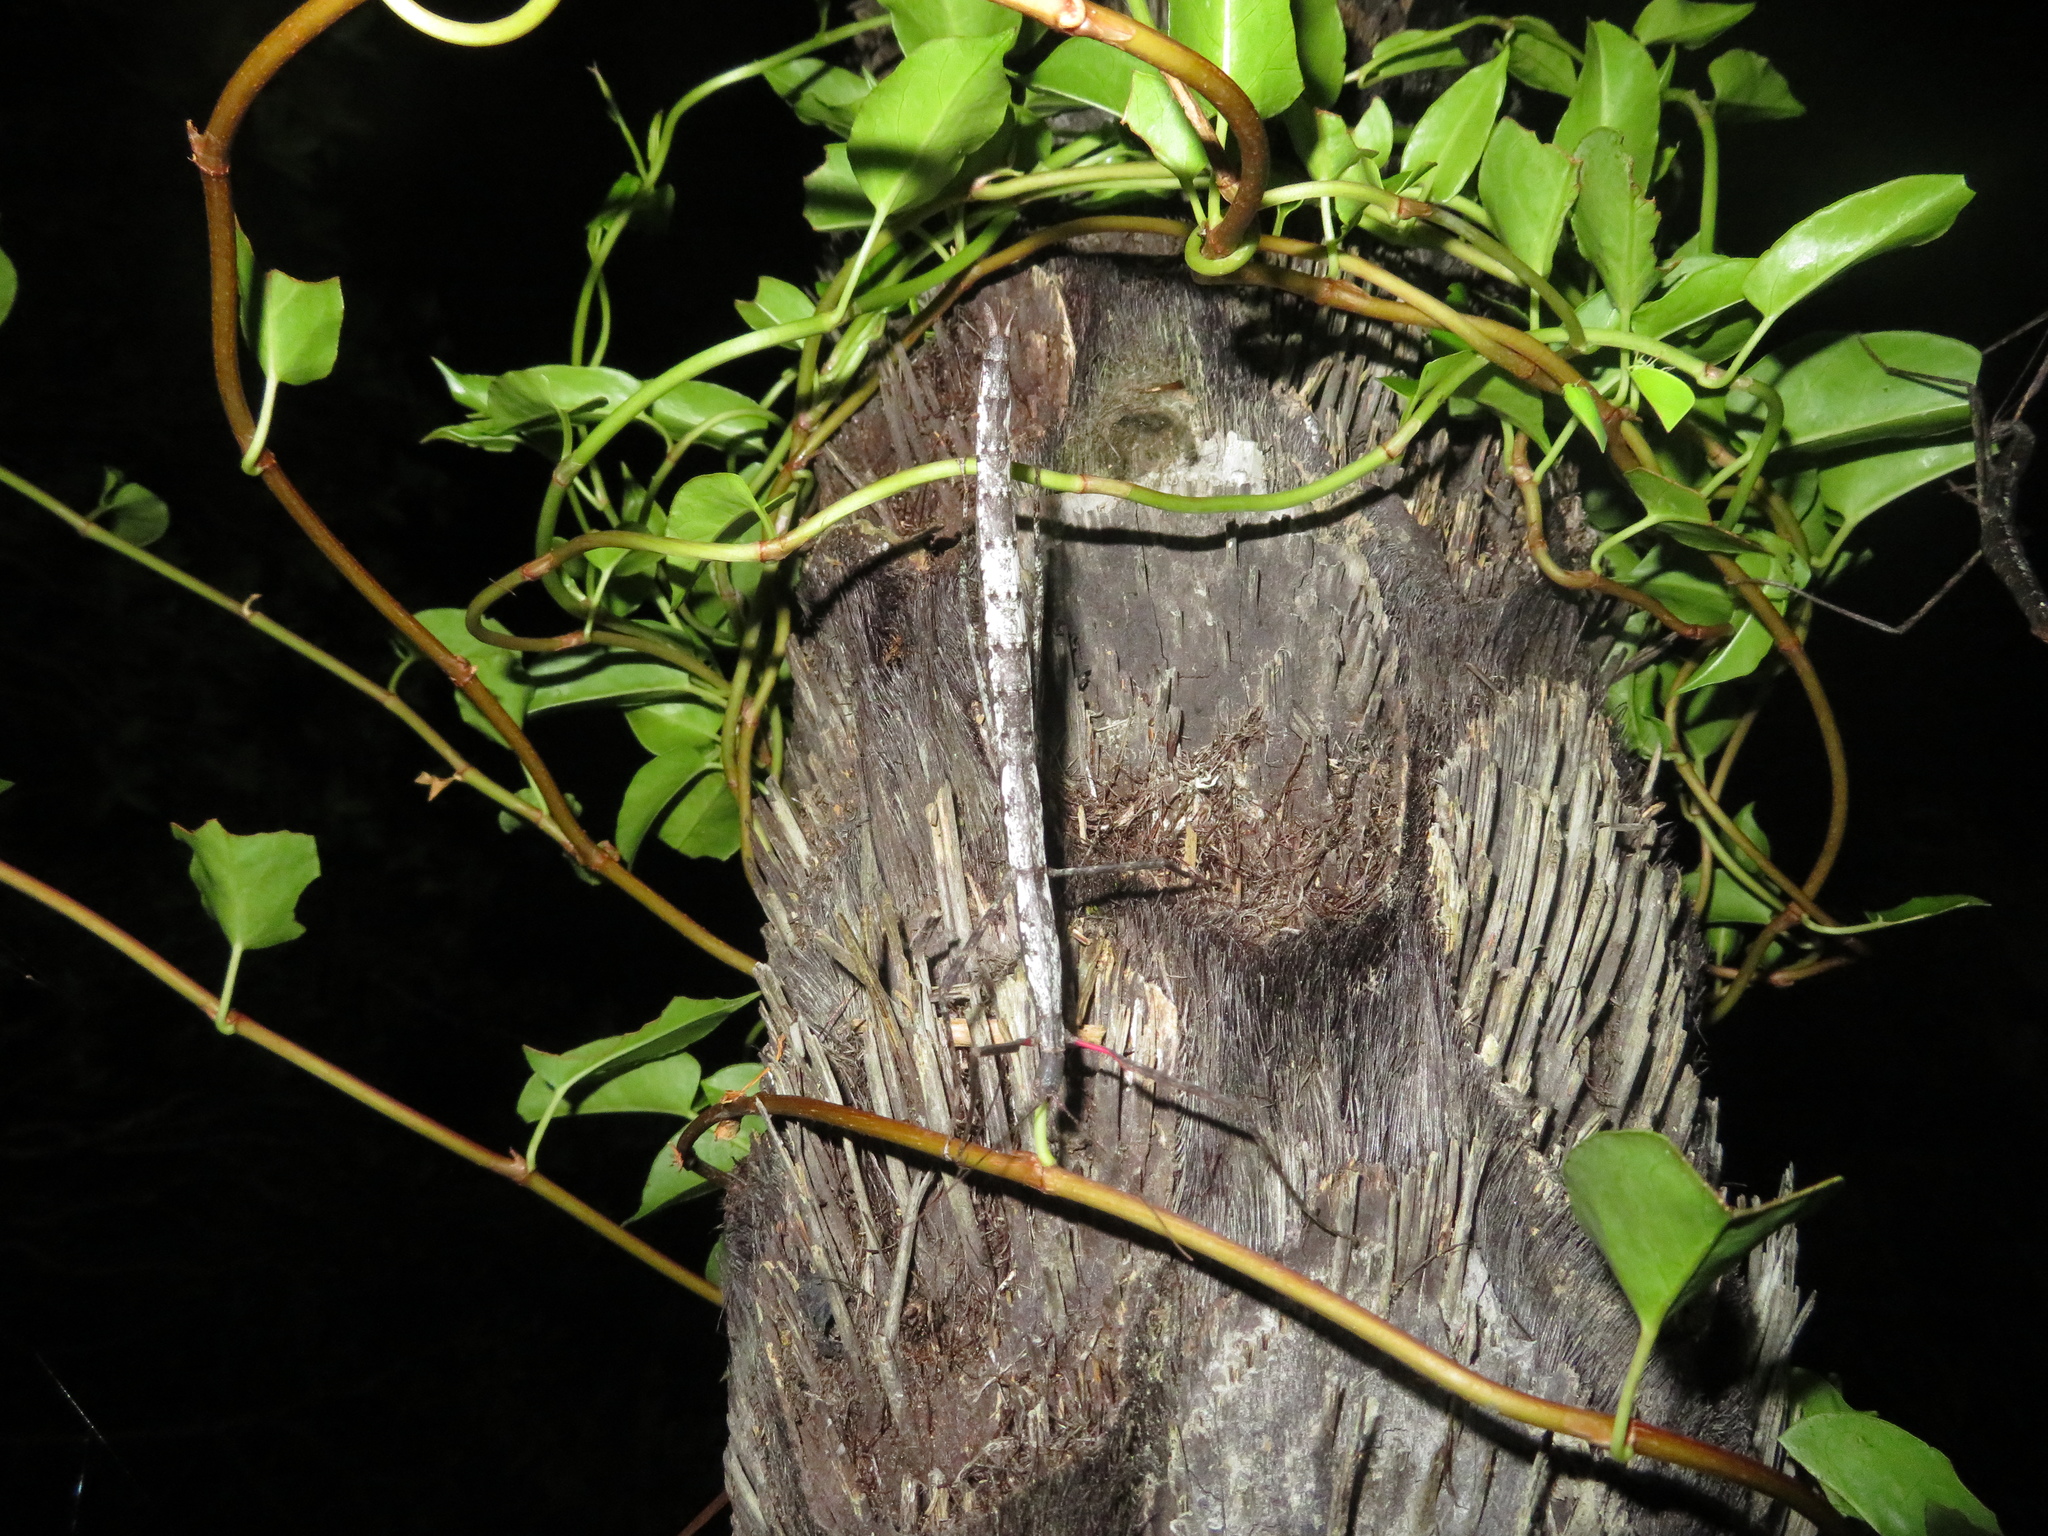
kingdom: Animalia
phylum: Arthropoda
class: Insecta
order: Phasmida
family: Phasmatidae
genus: Clitarchus
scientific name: Clitarchus hookeri
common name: Smooth stick insect
